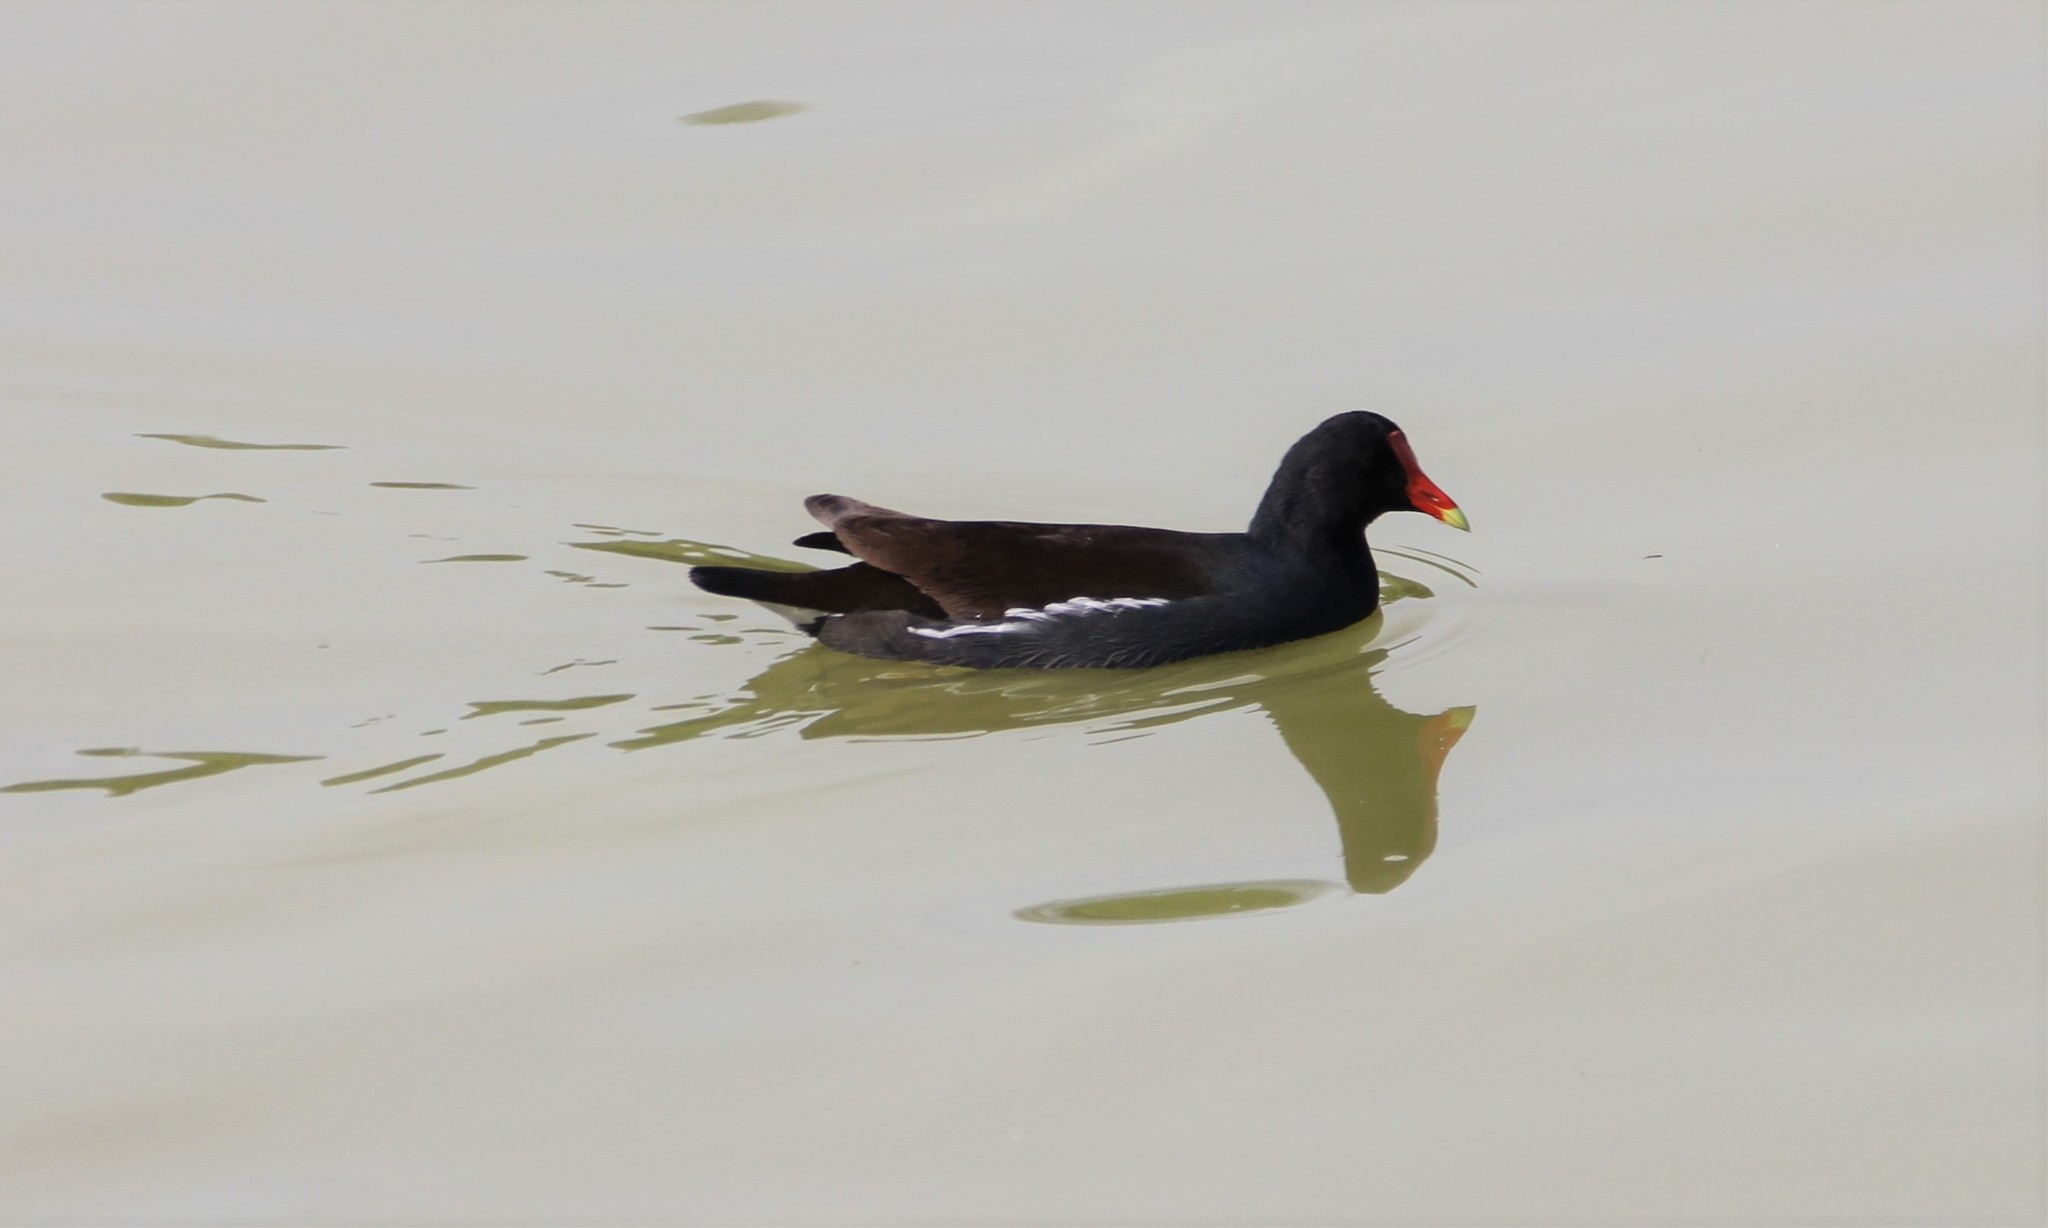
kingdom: Animalia
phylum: Chordata
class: Aves
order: Gruiformes
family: Rallidae
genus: Gallinula
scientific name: Gallinula chloropus
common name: Common moorhen
